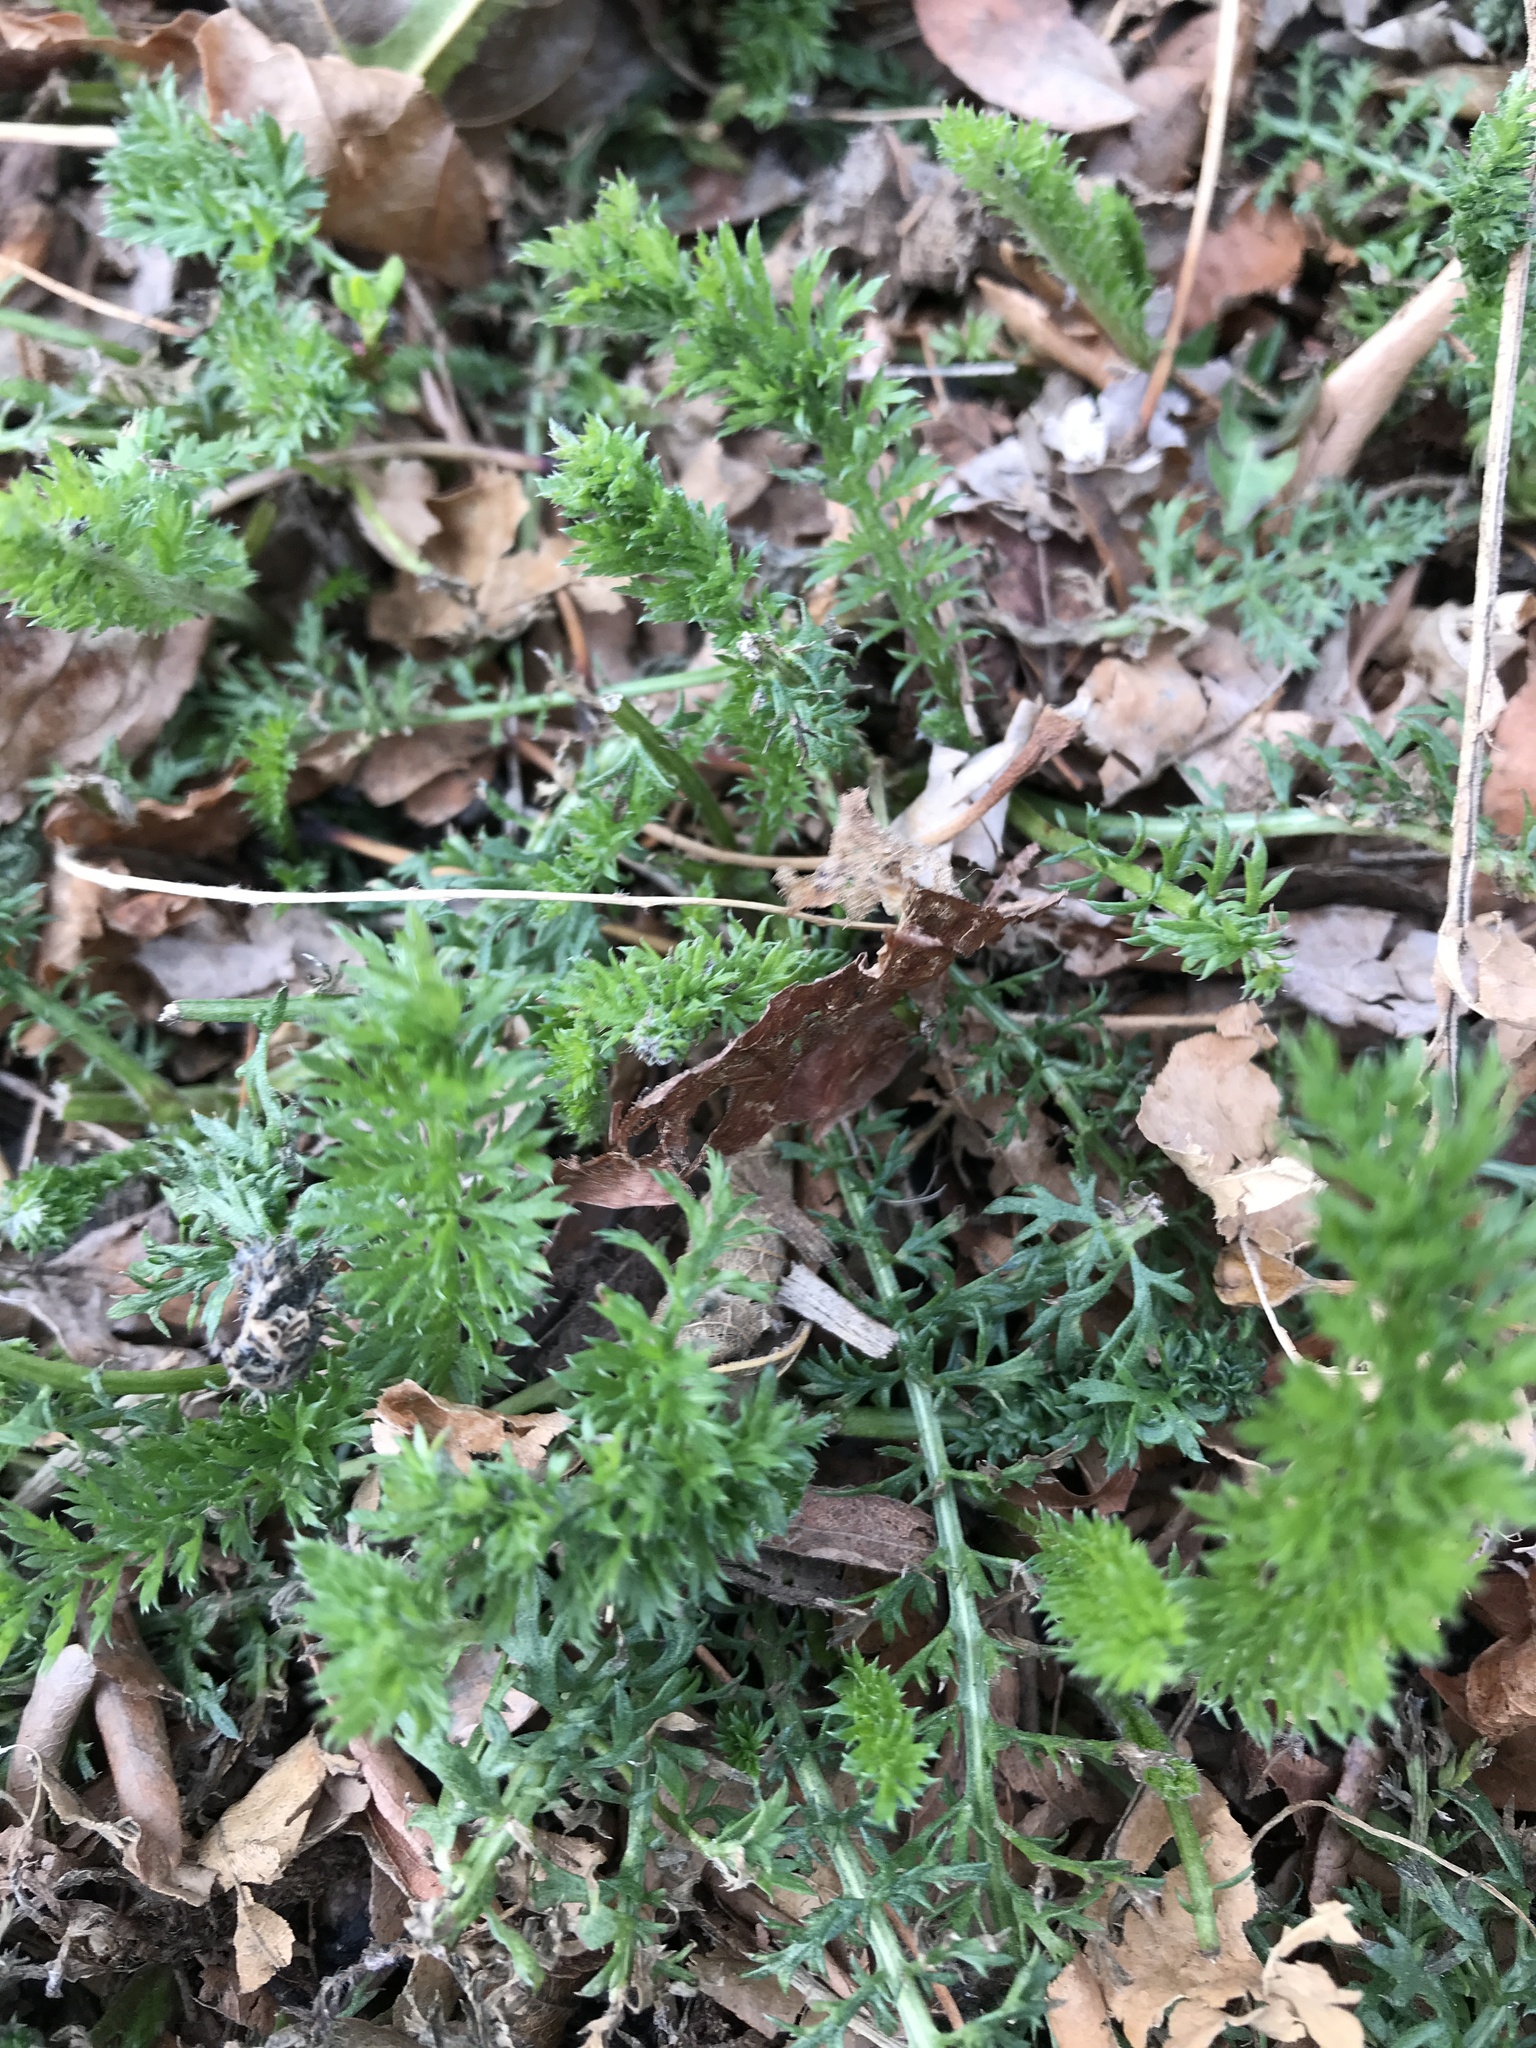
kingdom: Plantae
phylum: Tracheophyta
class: Magnoliopsida
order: Asterales
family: Asteraceae
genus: Achillea
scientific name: Achillea millefolium
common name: Yarrow
